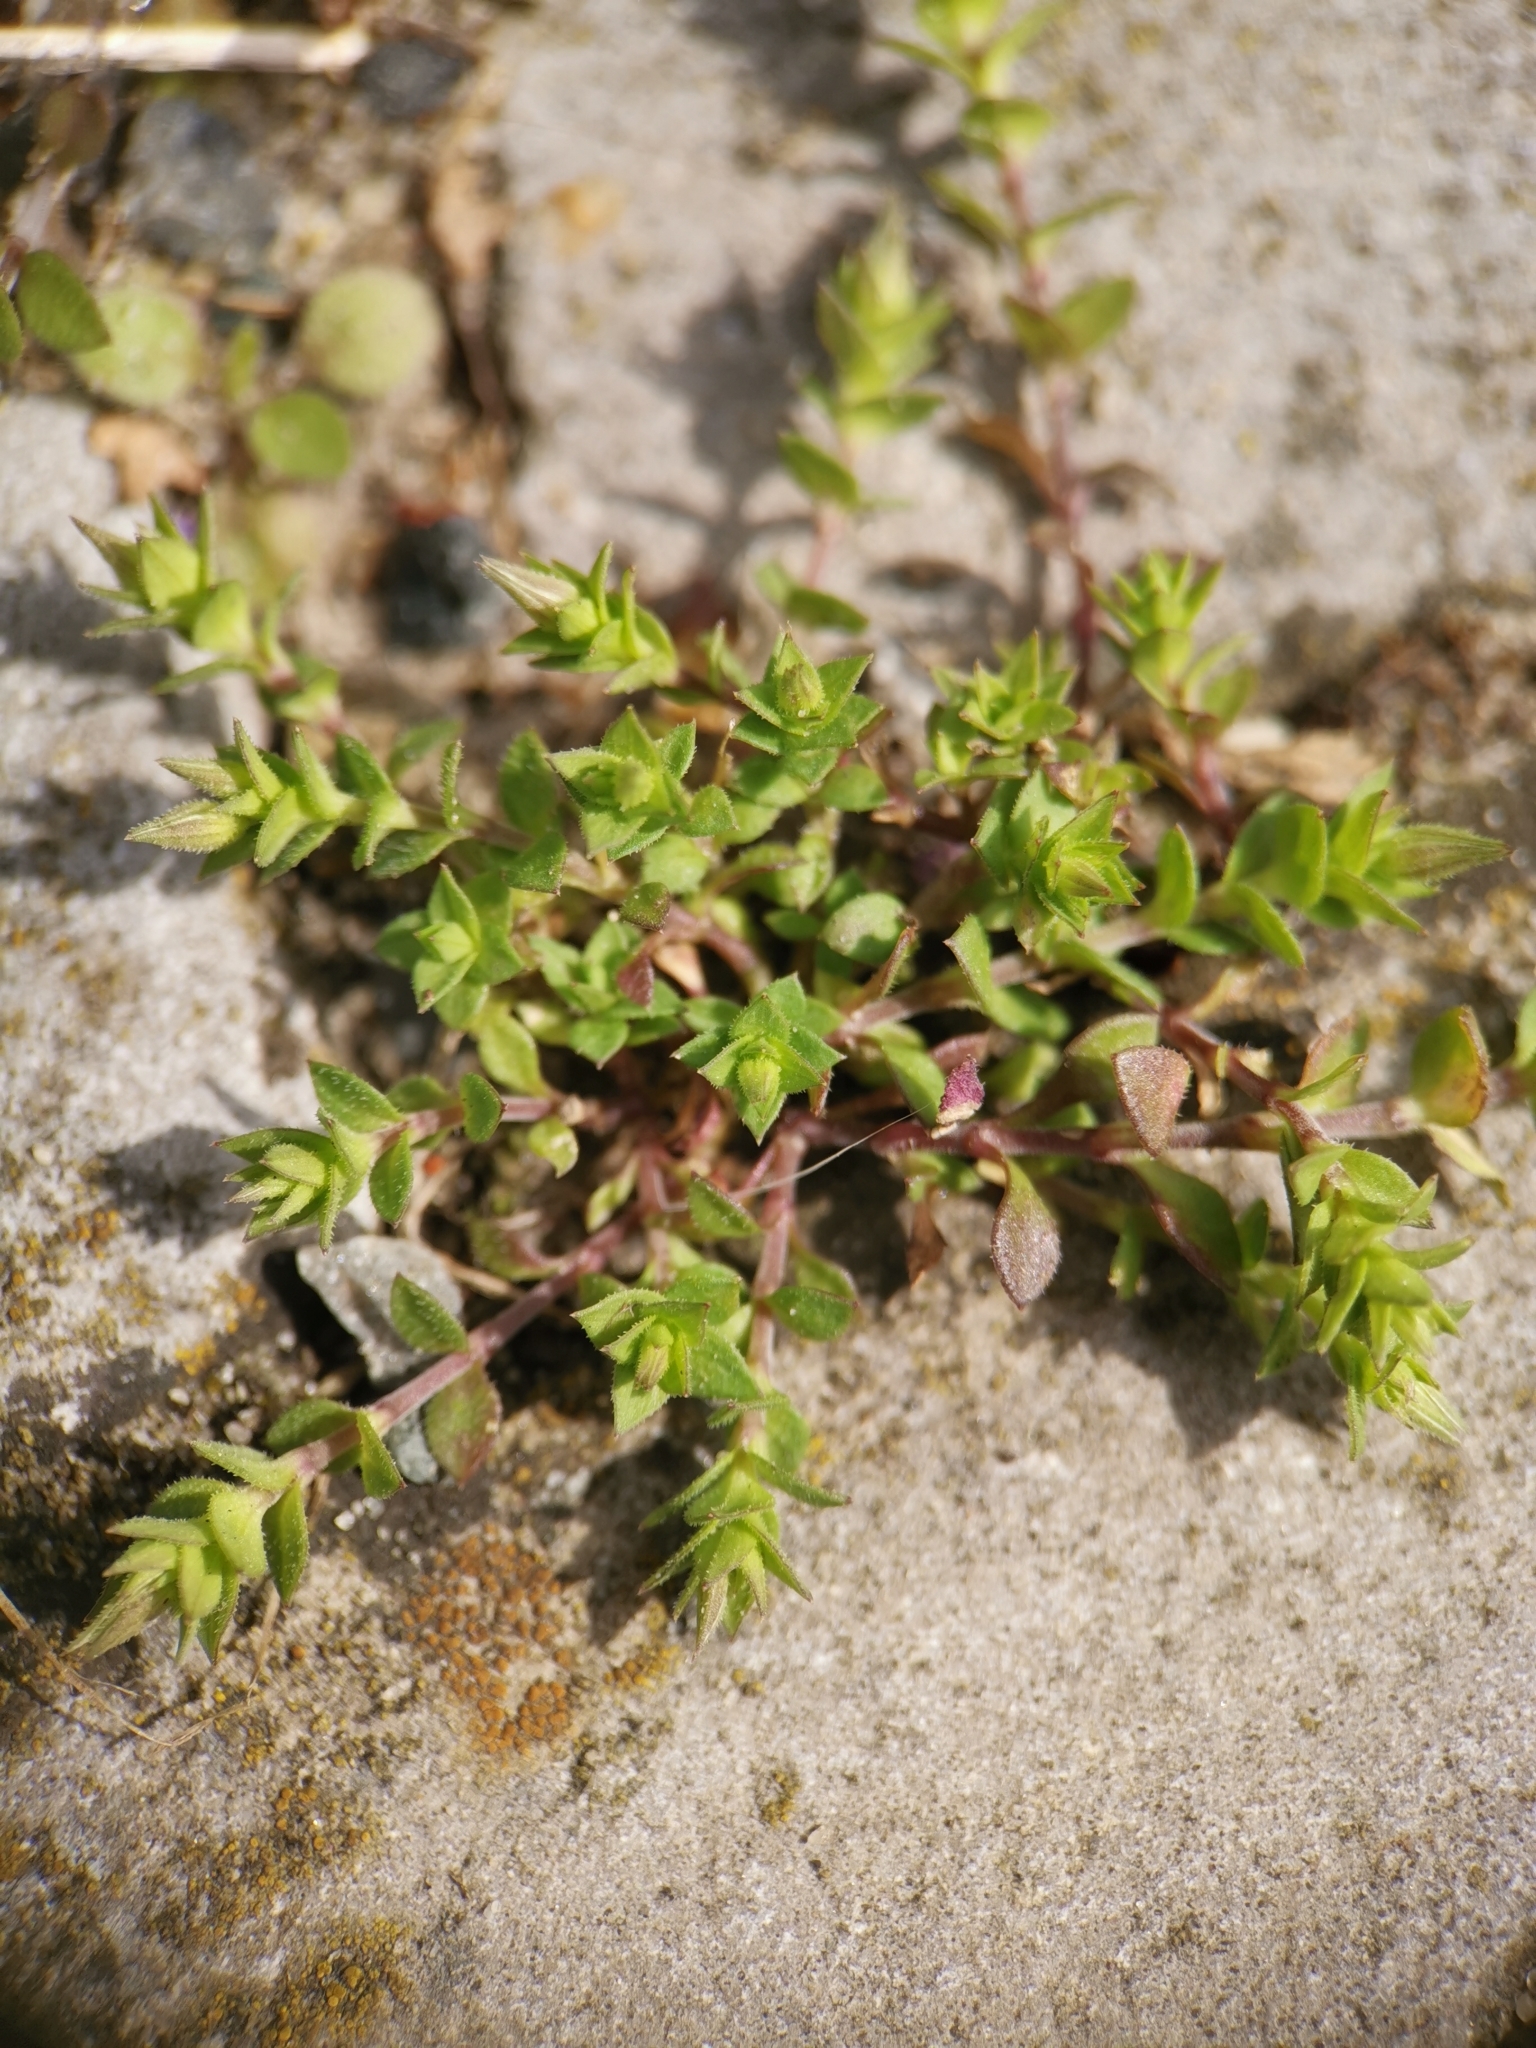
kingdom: Plantae
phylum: Tracheophyta
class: Magnoliopsida
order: Caryophyllales
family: Caryophyllaceae
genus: Arenaria
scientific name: Arenaria serpyllifolia
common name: Thyme-leaved sandwort
